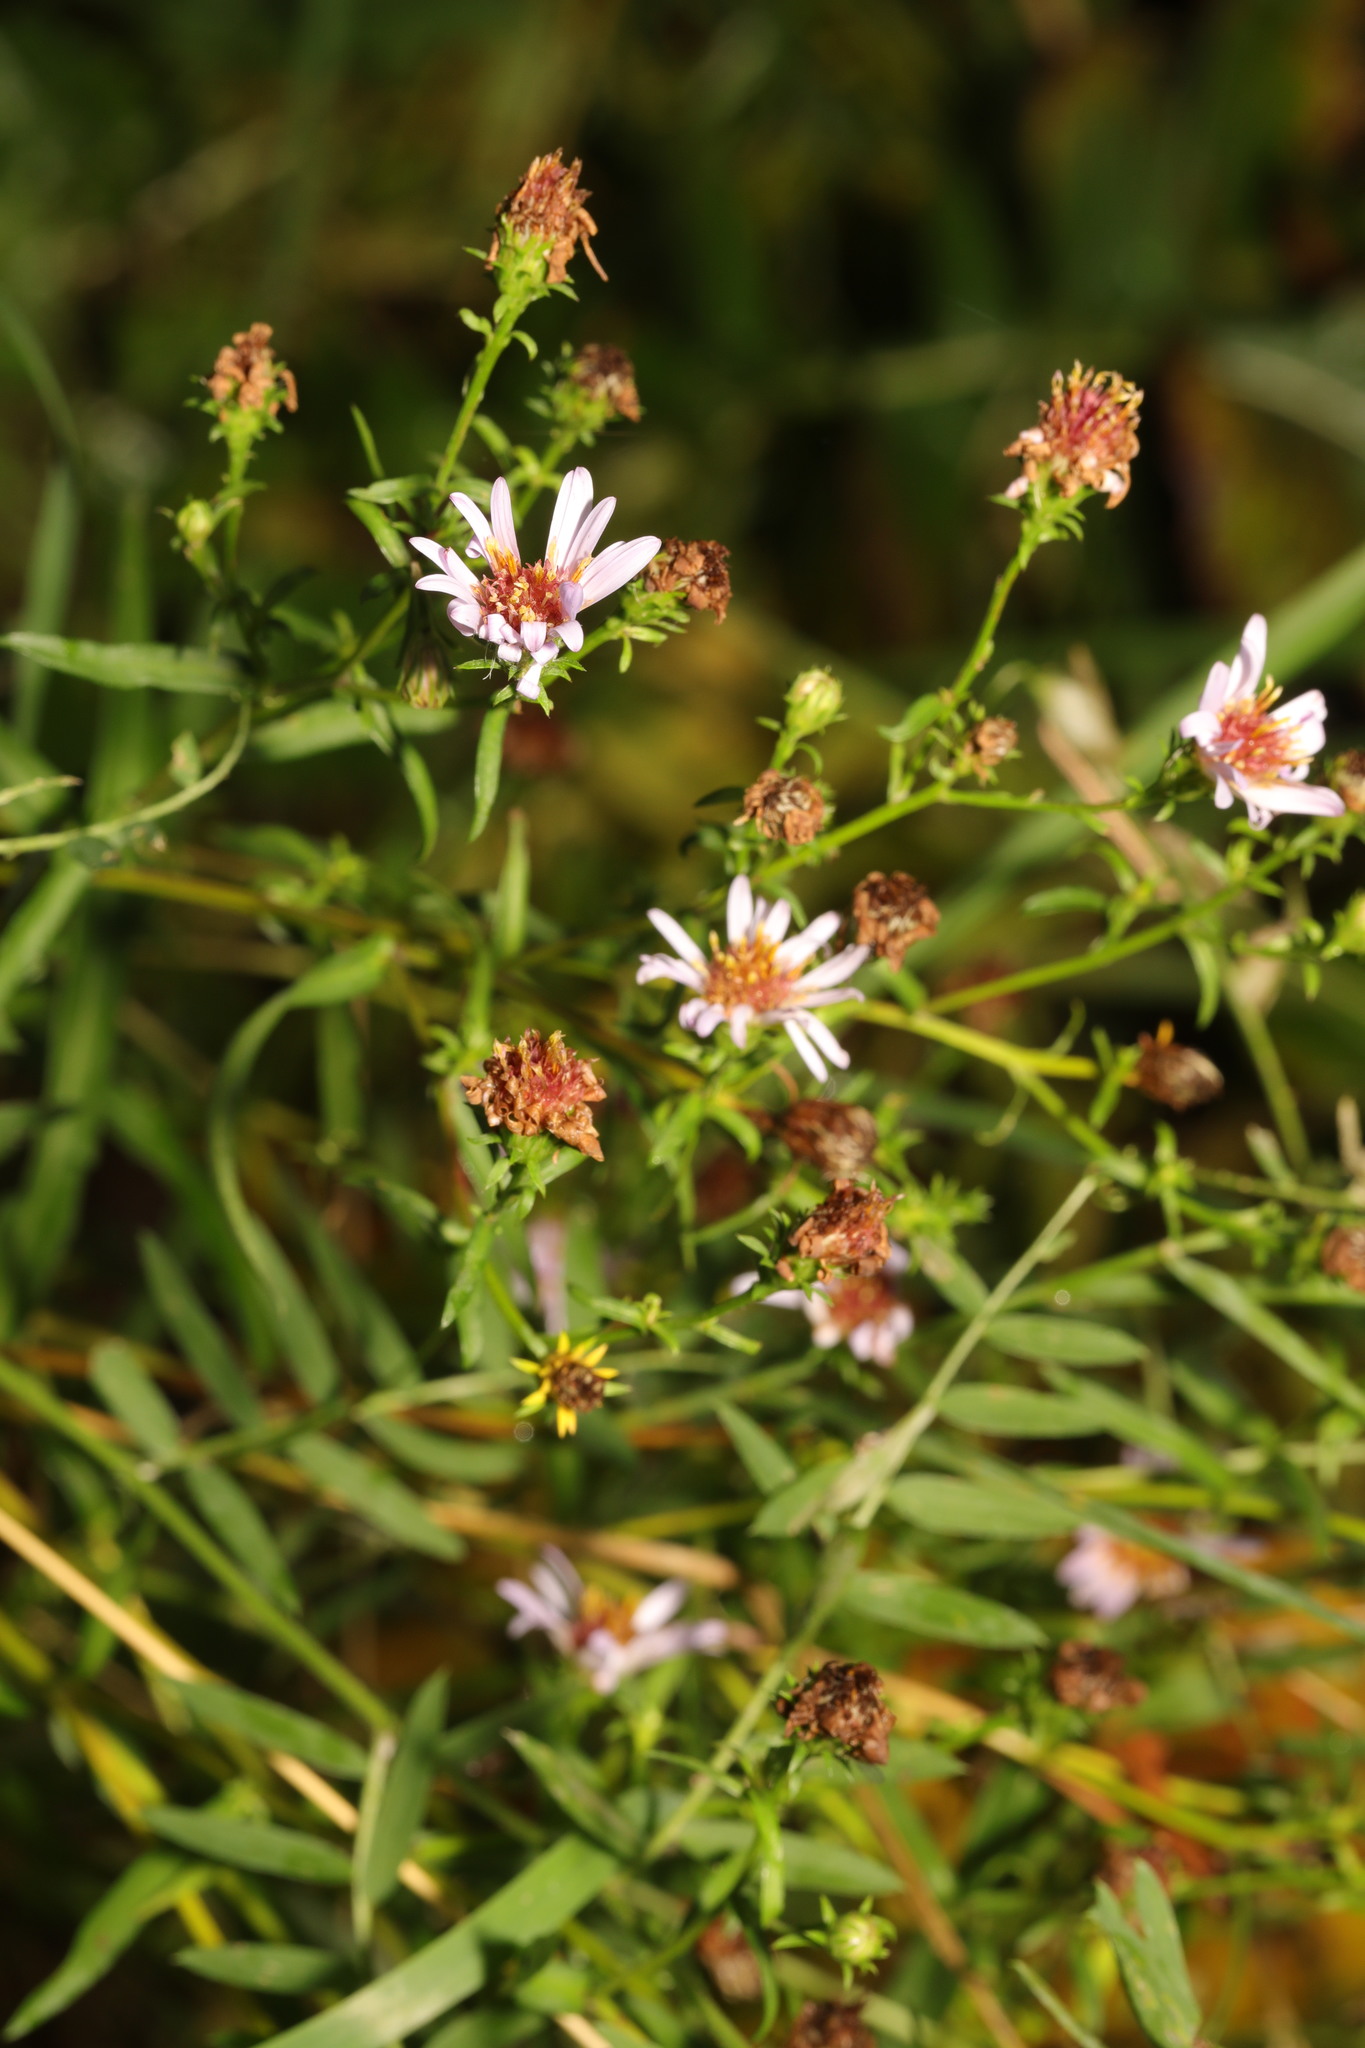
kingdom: Plantae
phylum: Tracheophyta
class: Magnoliopsida
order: Asterales
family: Asteraceae
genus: Symphyotrichum
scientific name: Symphyotrichum
